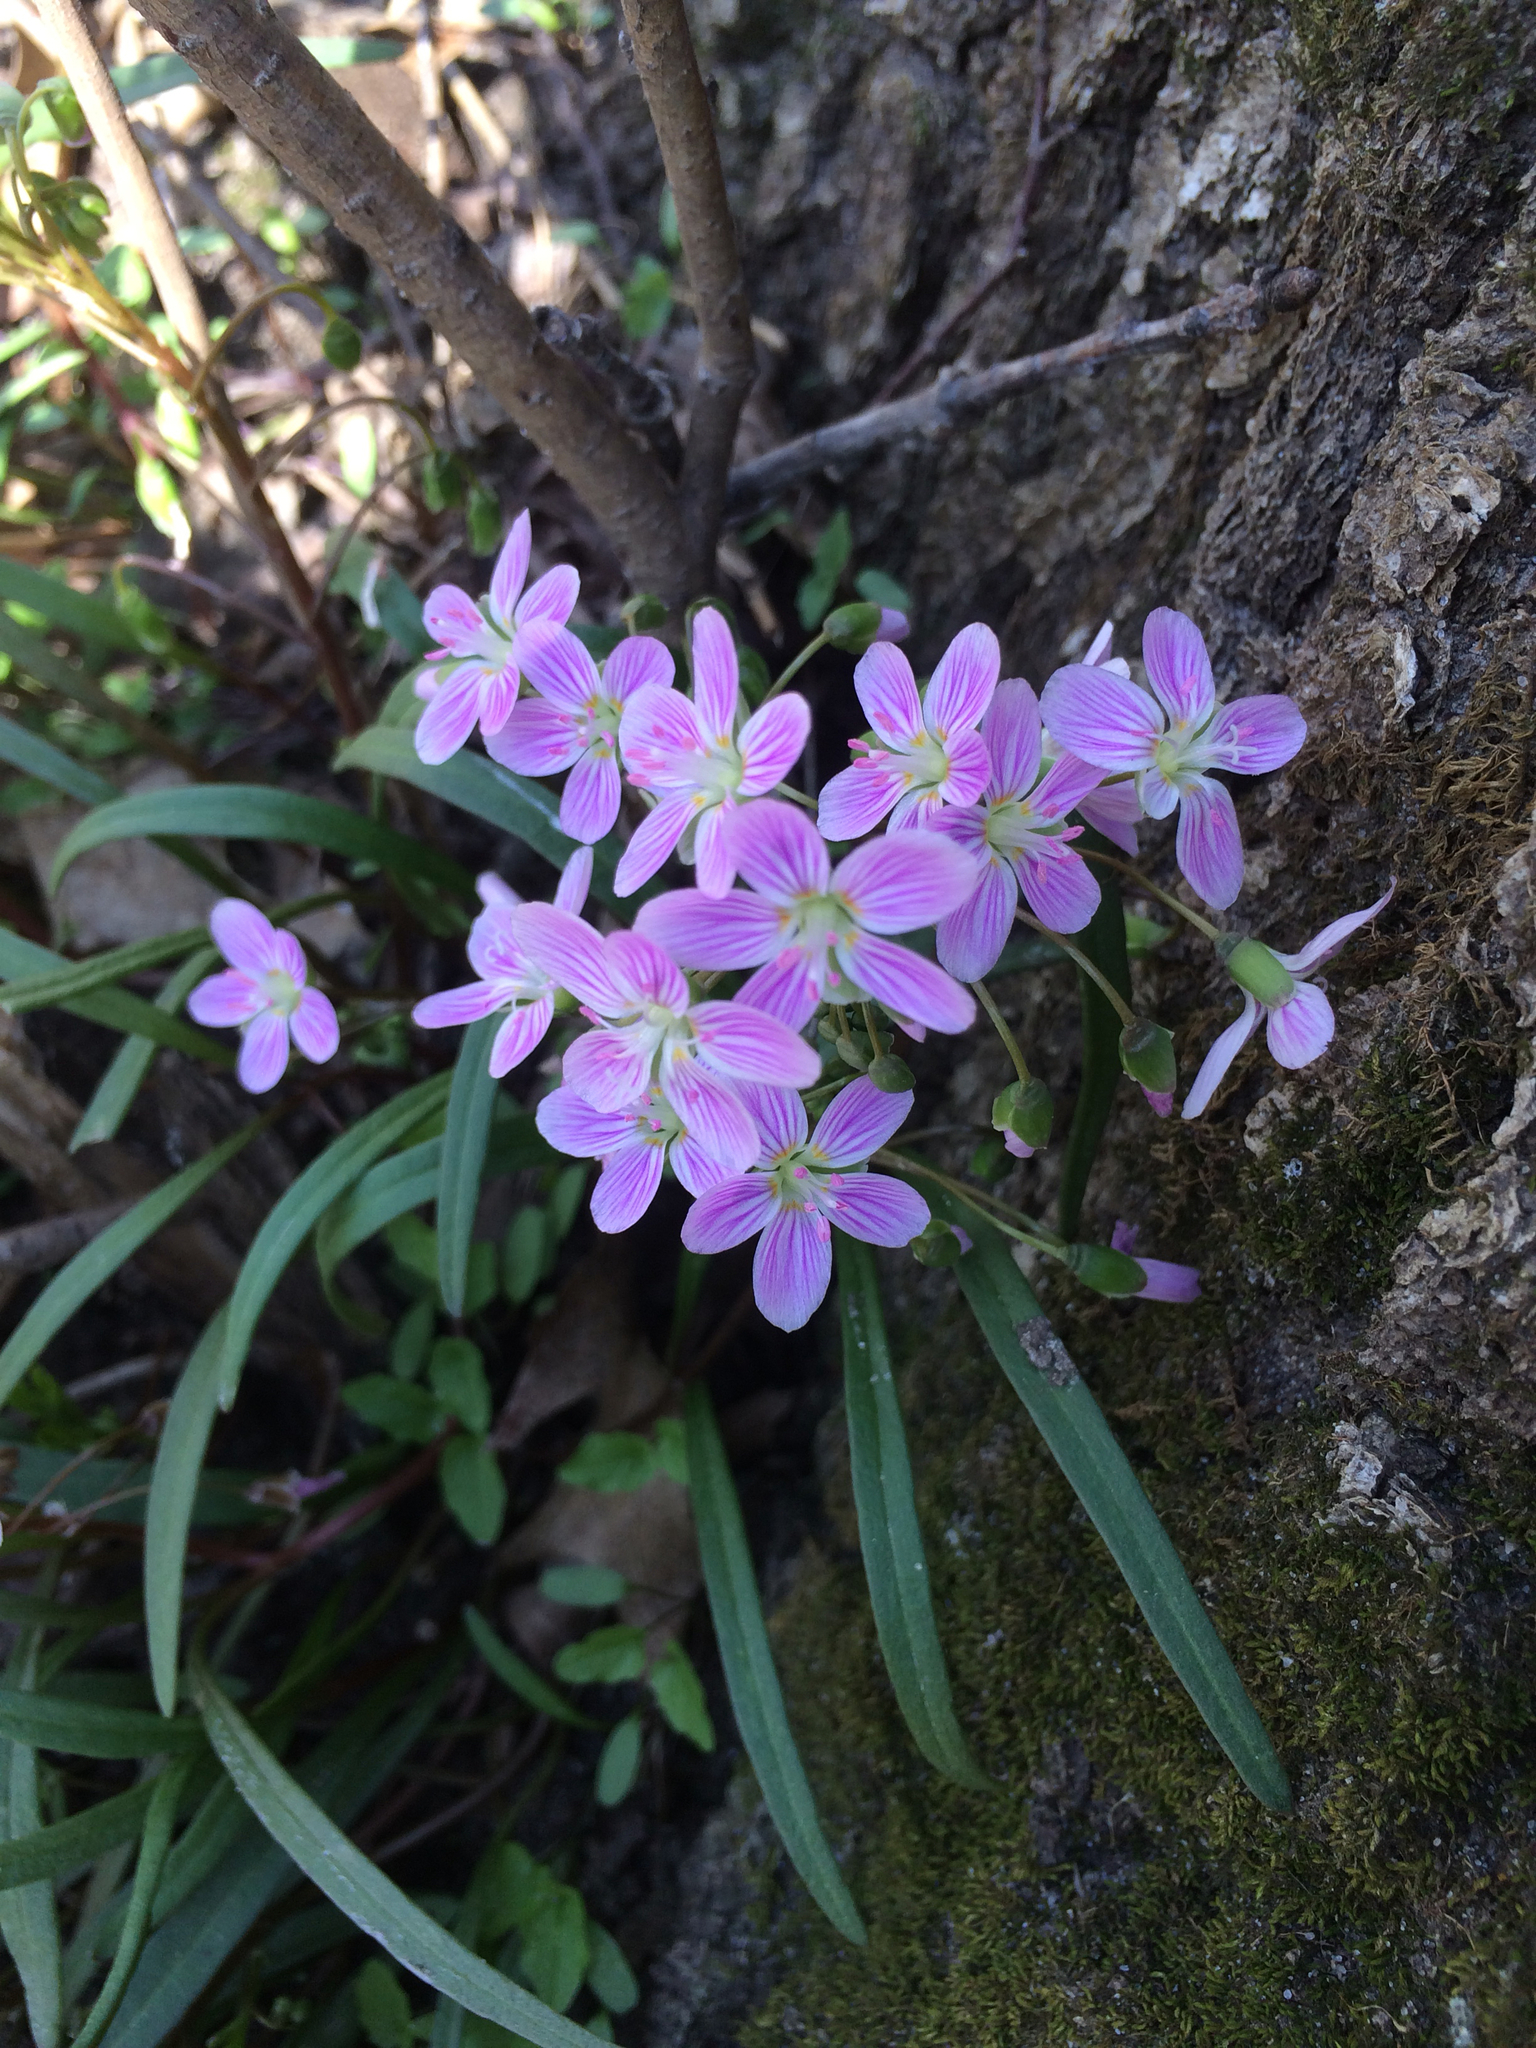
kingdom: Plantae
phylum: Tracheophyta
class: Magnoliopsida
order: Caryophyllales
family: Montiaceae
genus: Claytonia
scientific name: Claytonia virginica
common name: Virginia springbeauty
